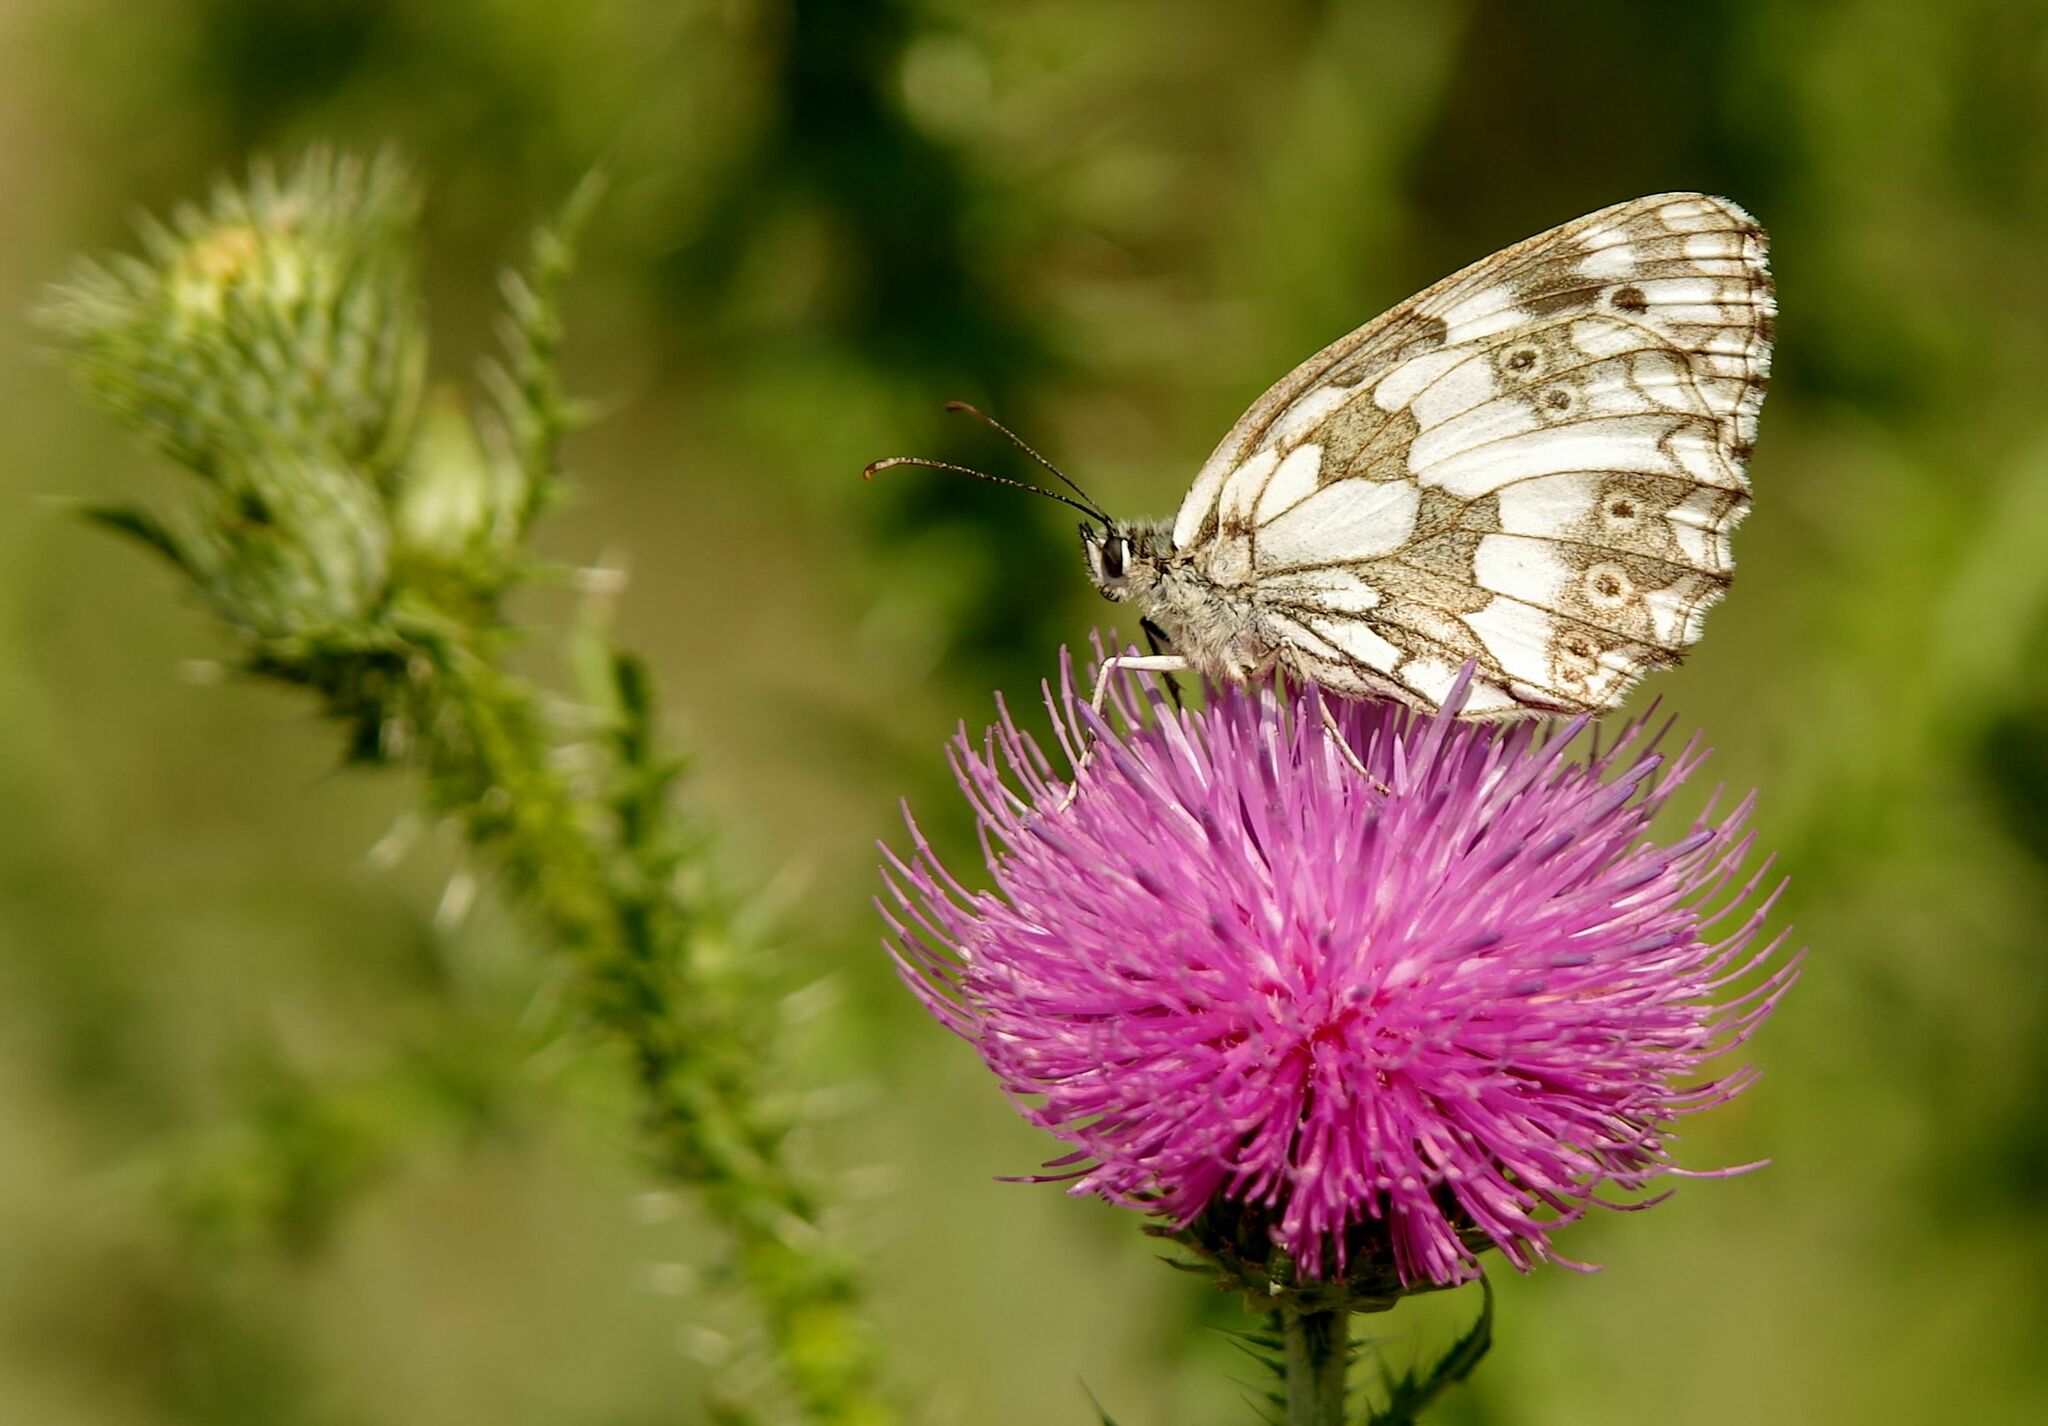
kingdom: Animalia
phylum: Arthropoda
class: Insecta
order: Lepidoptera
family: Nymphalidae
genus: Melanargia
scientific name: Melanargia galathea
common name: Marbled white
